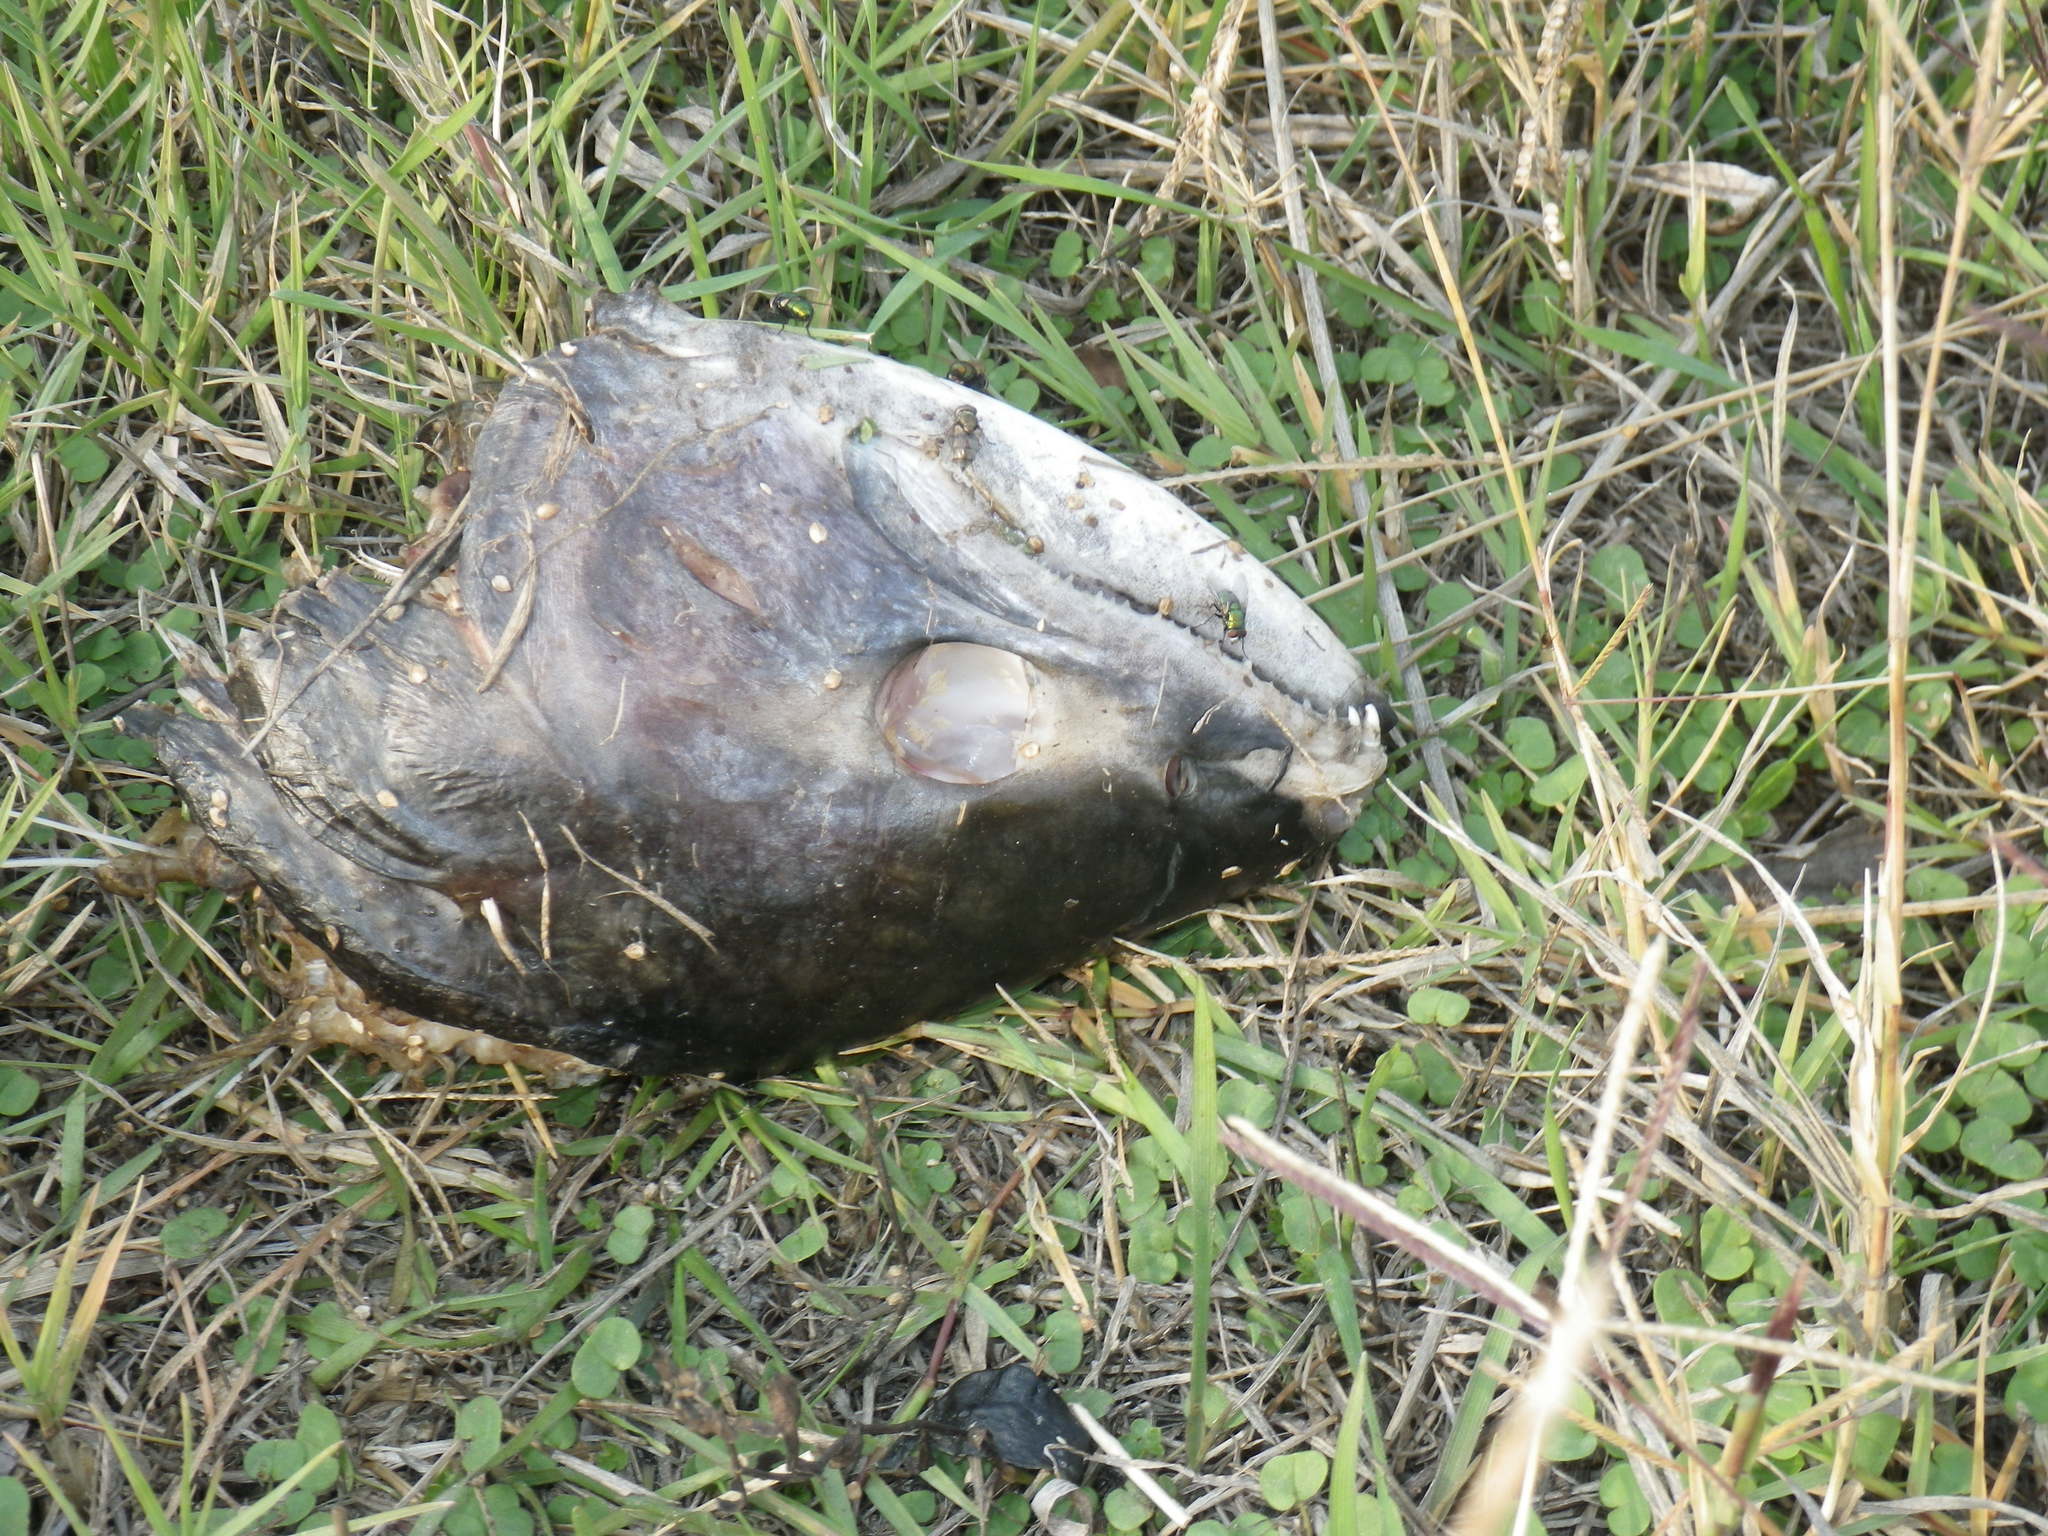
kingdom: Animalia
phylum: Chordata
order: Salmoniformes
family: Salmonidae
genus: Oncorhynchus
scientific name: Oncorhynchus tshawytscha
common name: Chinook salmon
